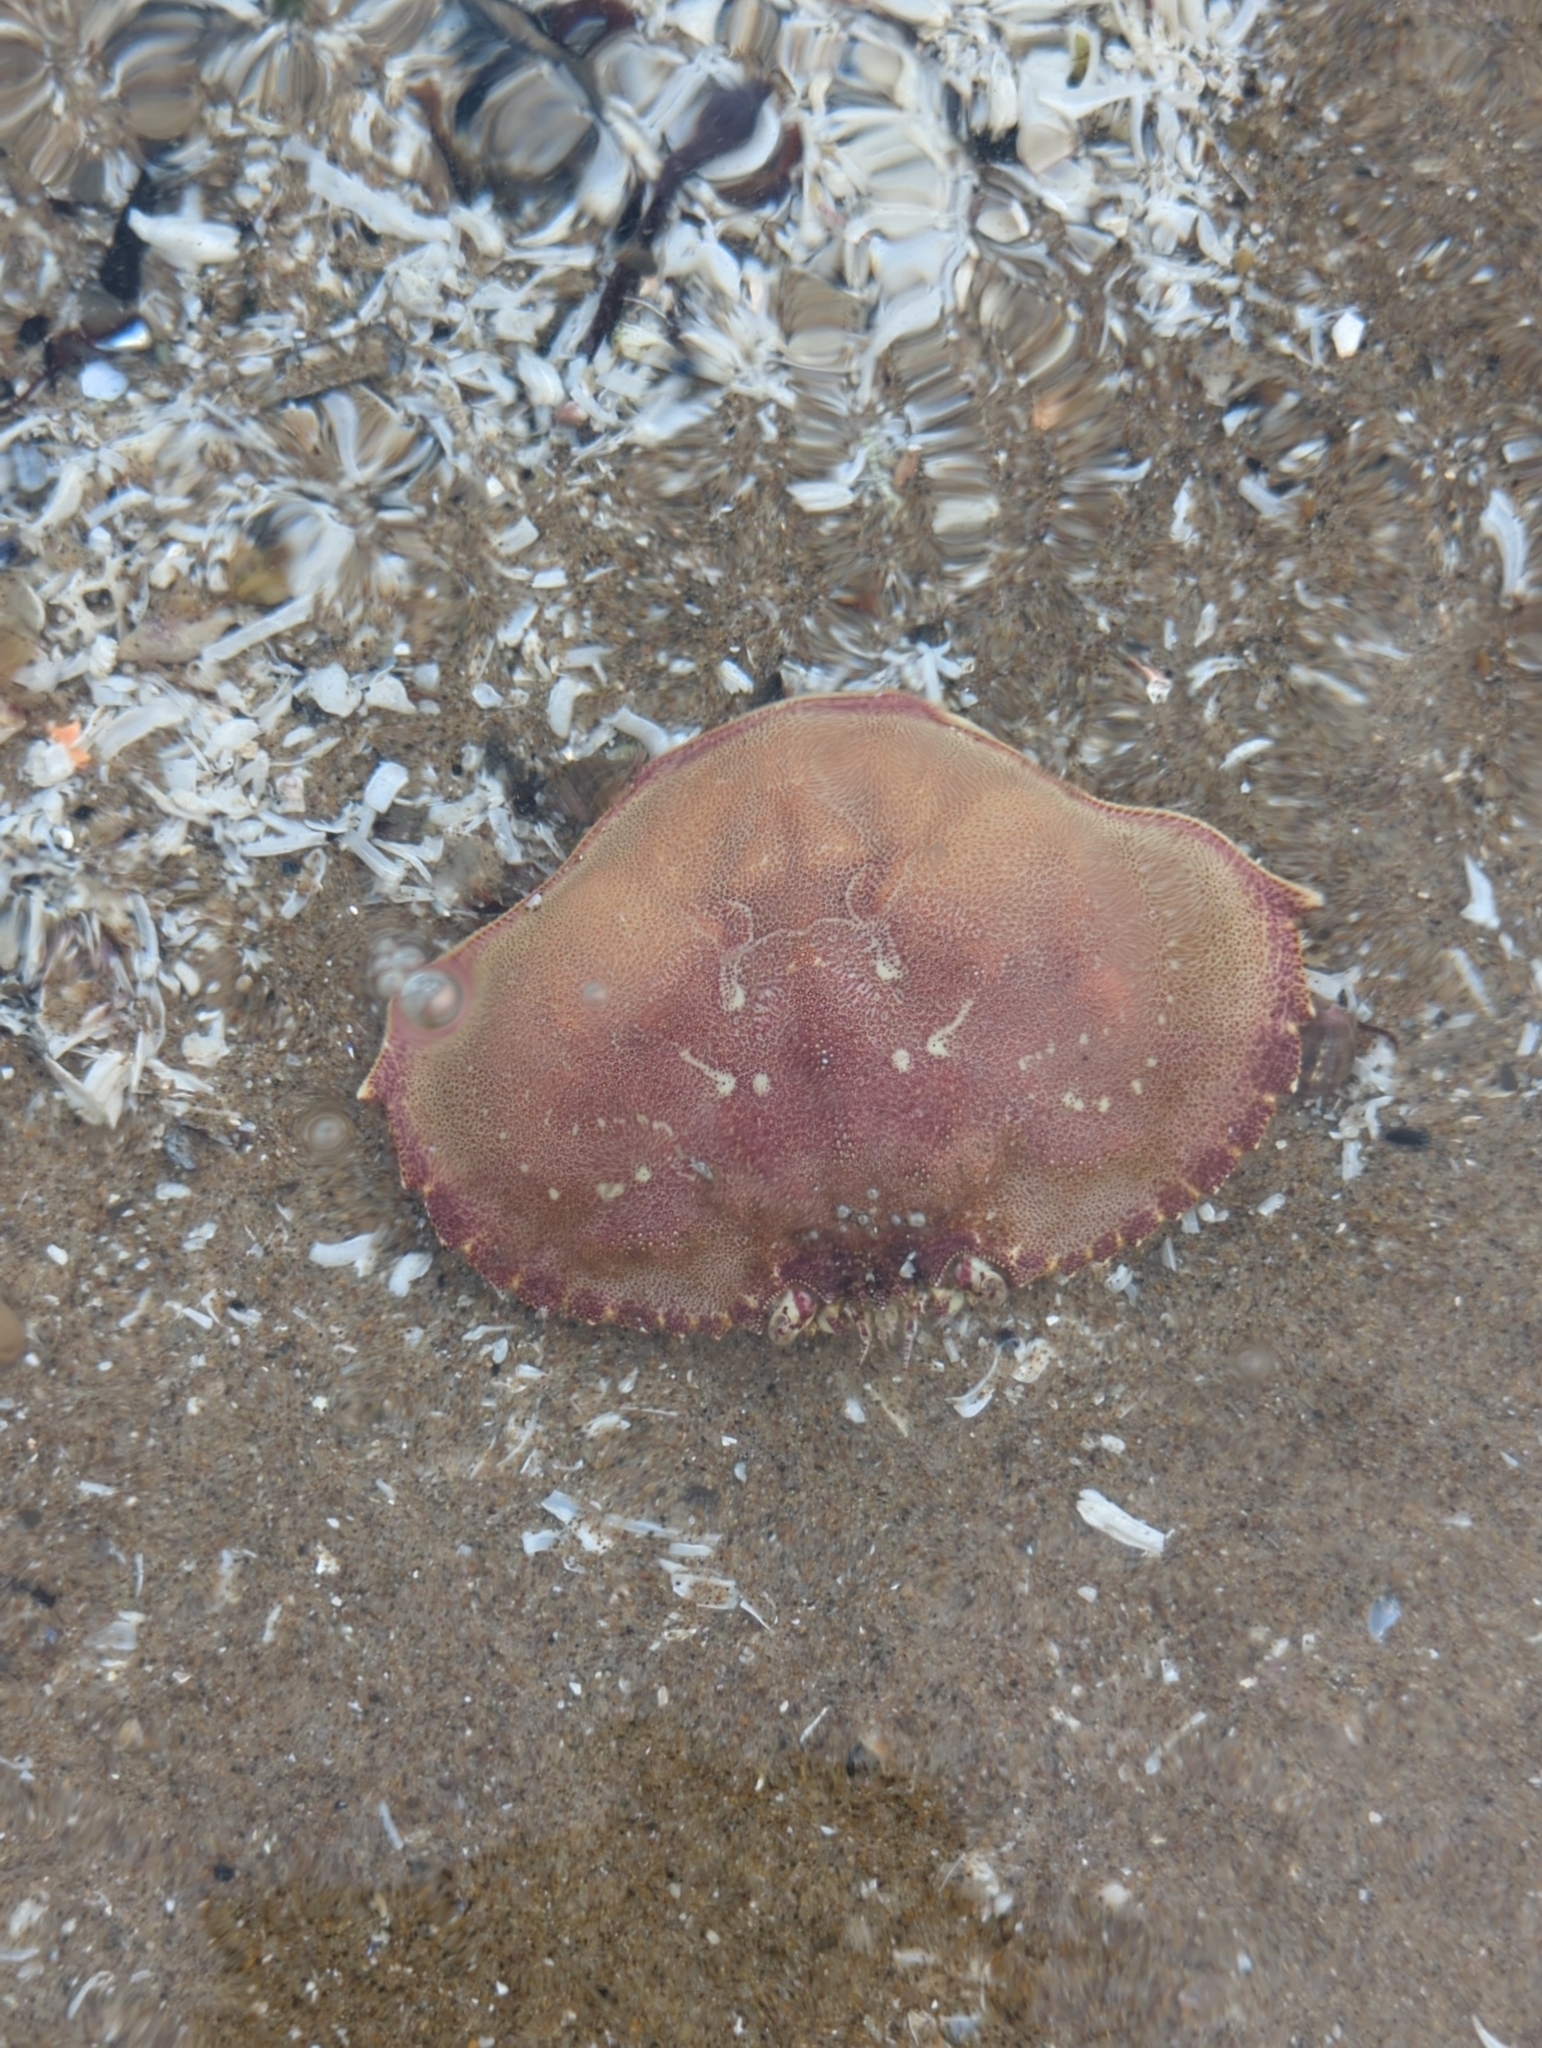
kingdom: Animalia
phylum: Arthropoda
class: Malacostraca
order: Decapoda
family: Cancridae
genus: Metacarcinus
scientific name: Metacarcinus magister
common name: Californian crab
